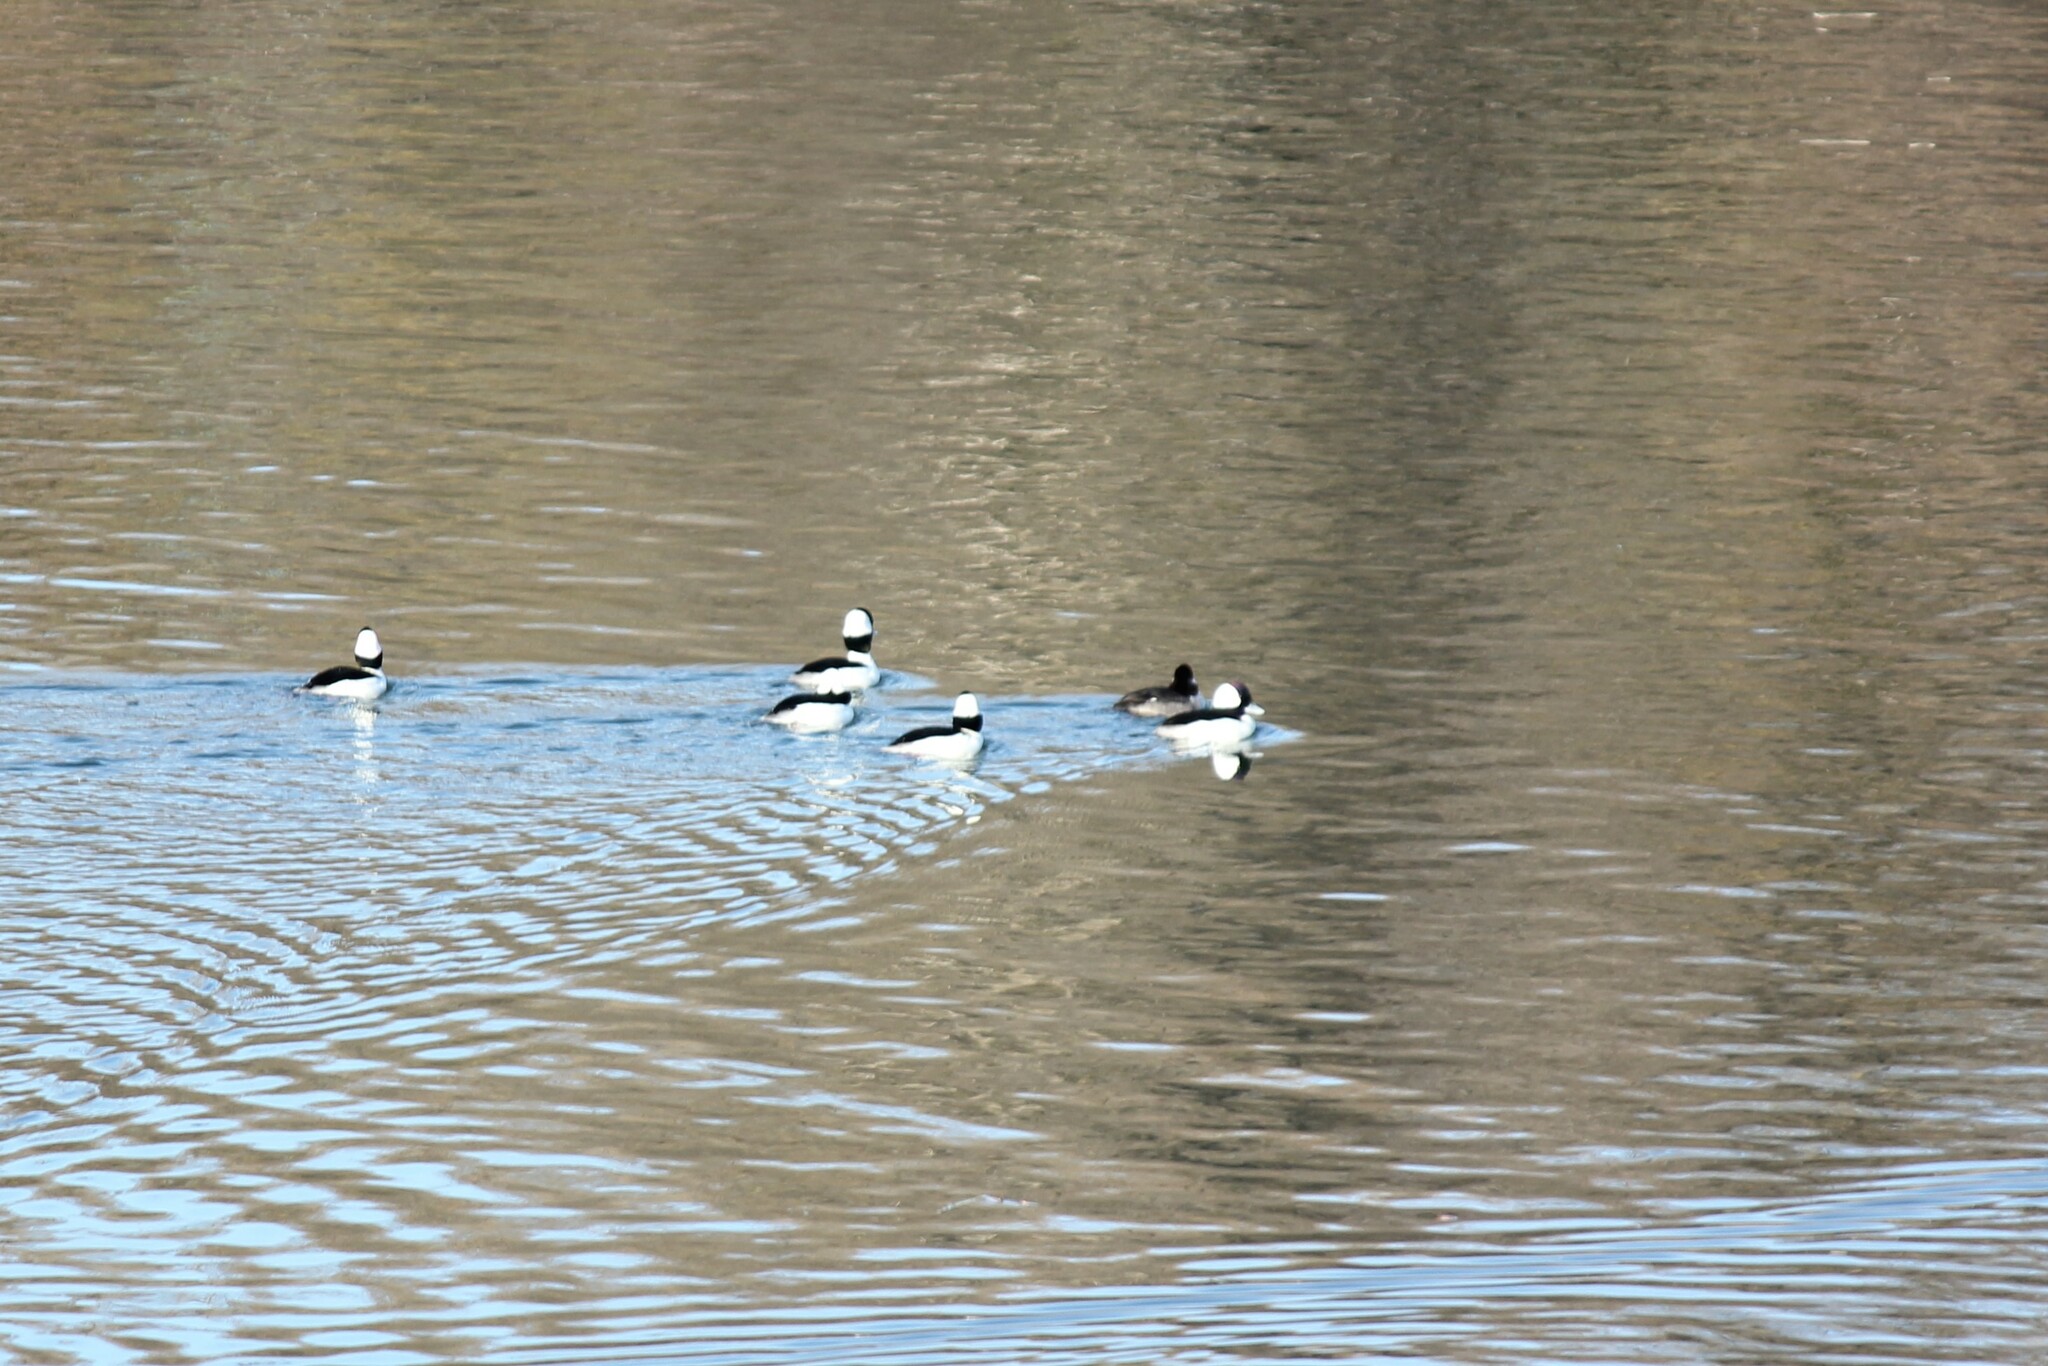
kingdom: Animalia
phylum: Chordata
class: Aves
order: Anseriformes
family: Anatidae
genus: Bucephala
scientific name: Bucephala albeola
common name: Bufflehead
